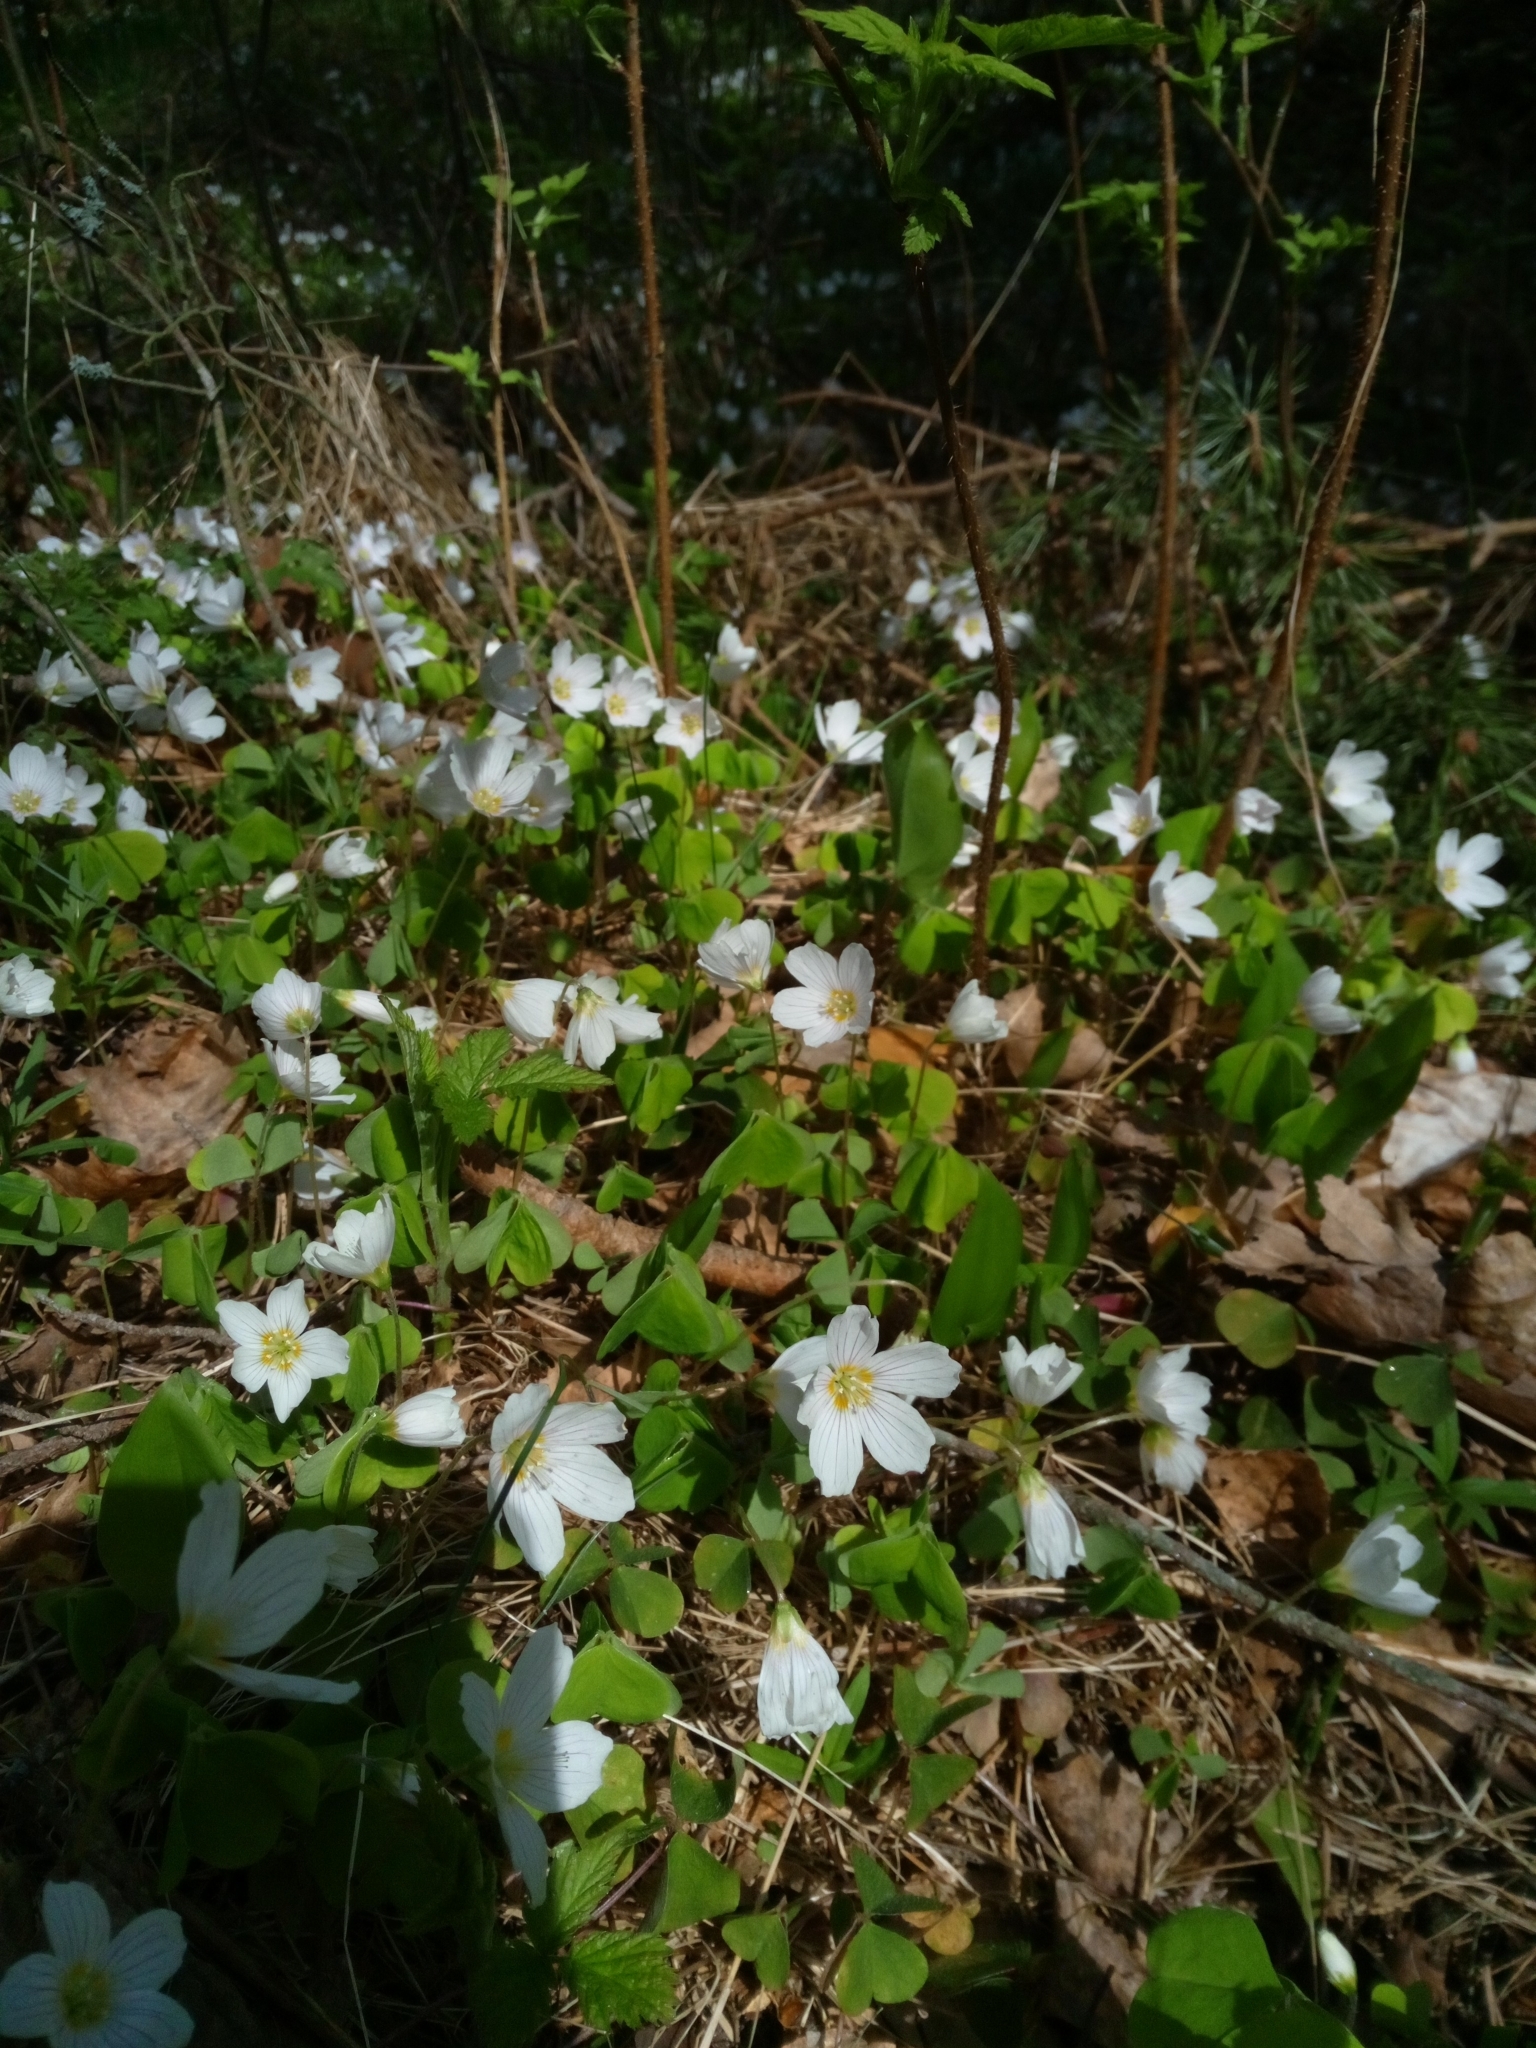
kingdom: Plantae
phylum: Tracheophyta
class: Magnoliopsida
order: Oxalidales
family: Oxalidaceae
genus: Oxalis
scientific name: Oxalis acetosella
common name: Wood-sorrel
